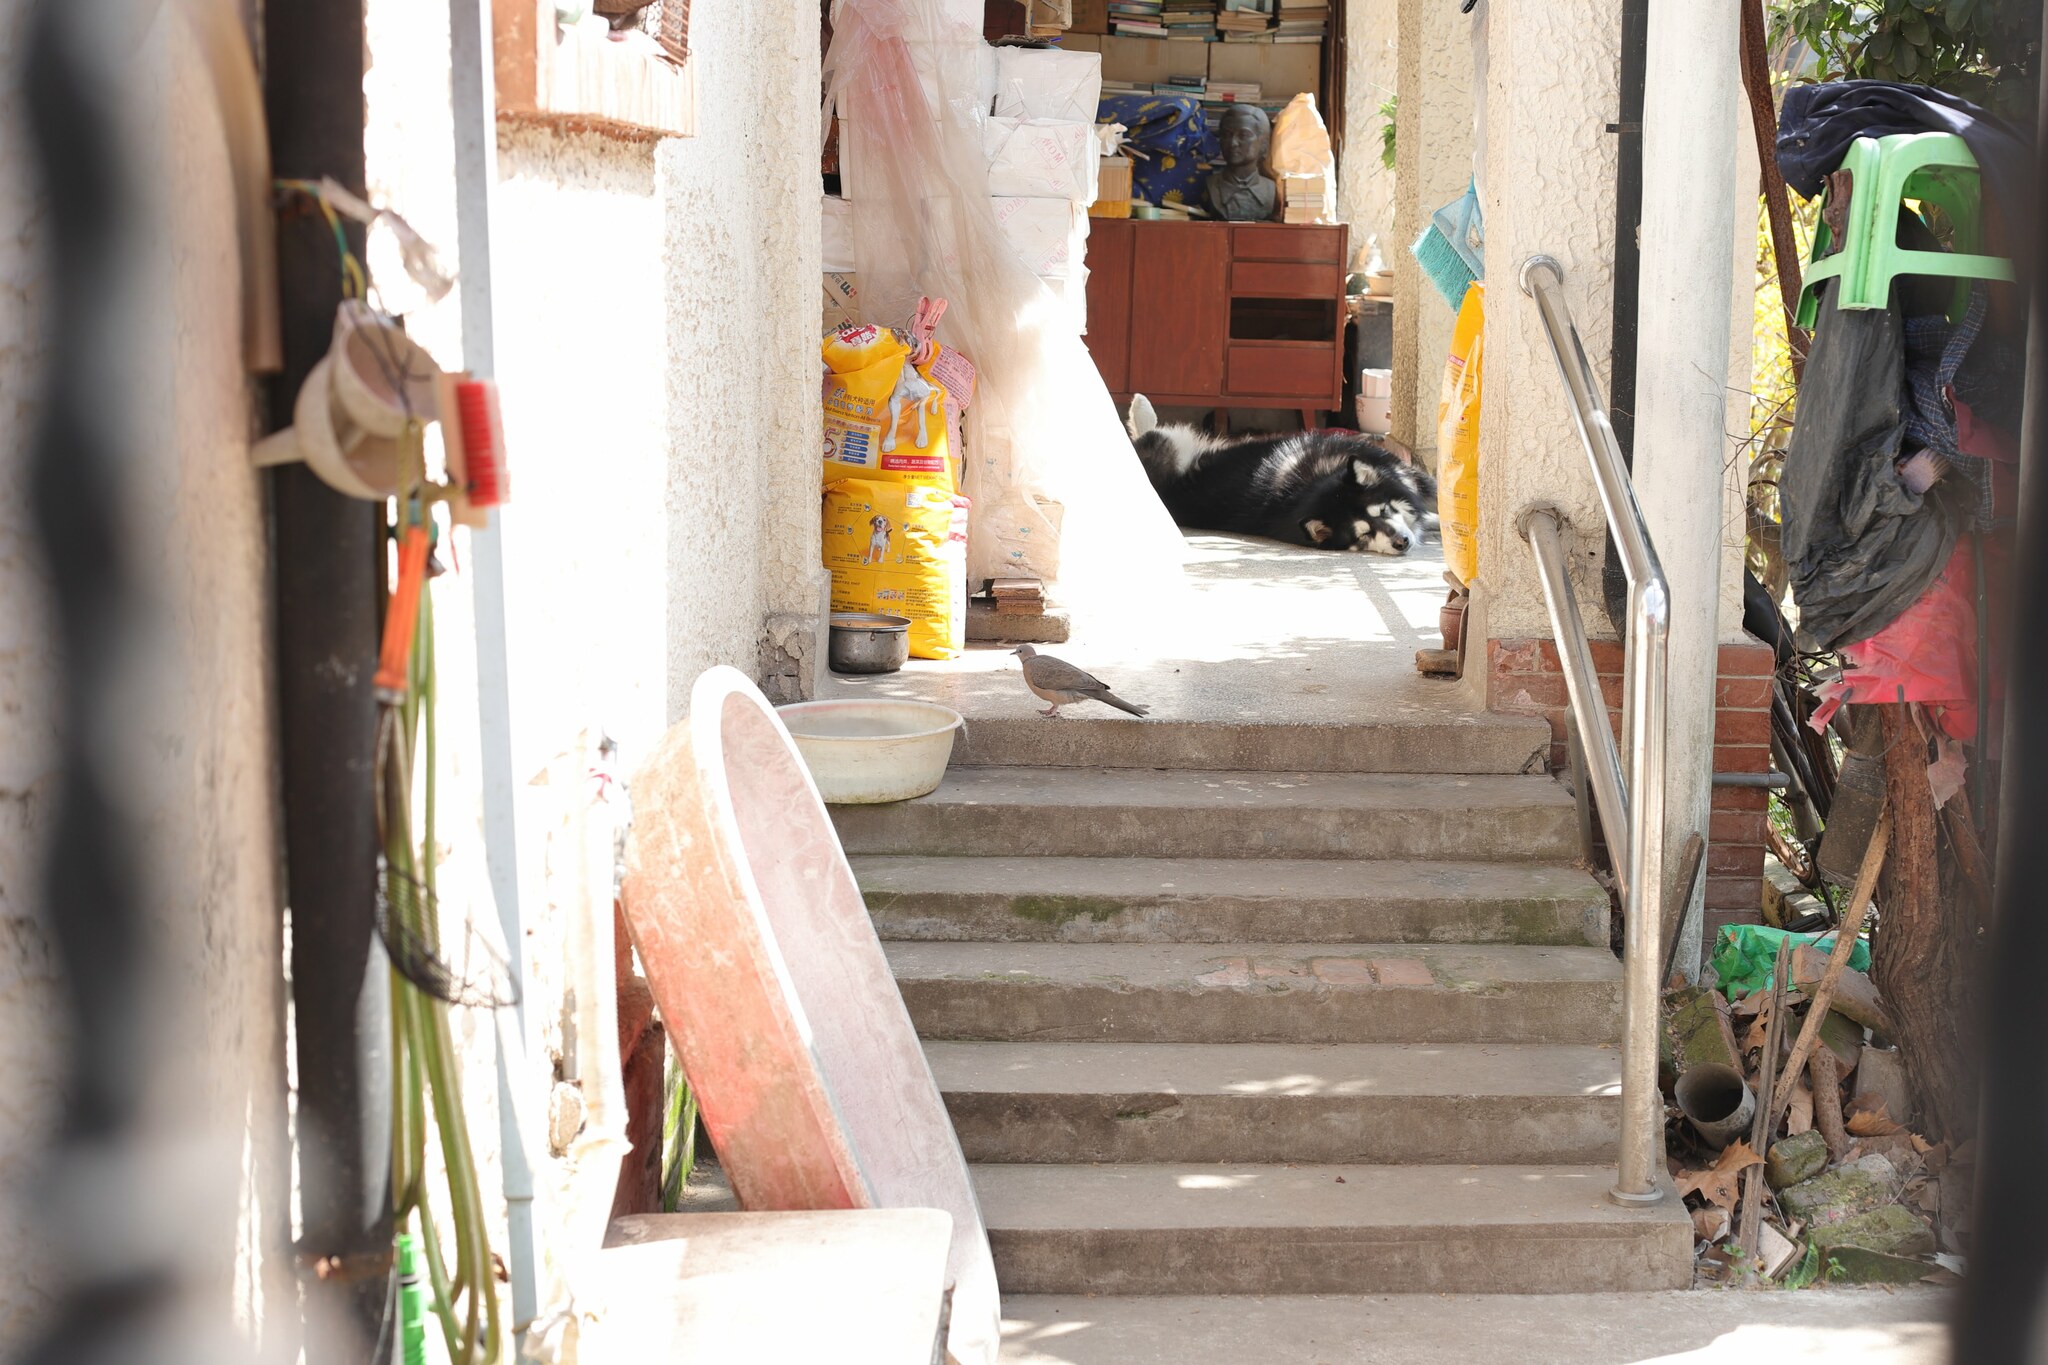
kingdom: Animalia
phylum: Chordata
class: Aves
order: Columbiformes
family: Columbidae
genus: Spilopelia
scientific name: Spilopelia chinensis
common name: Spotted dove
